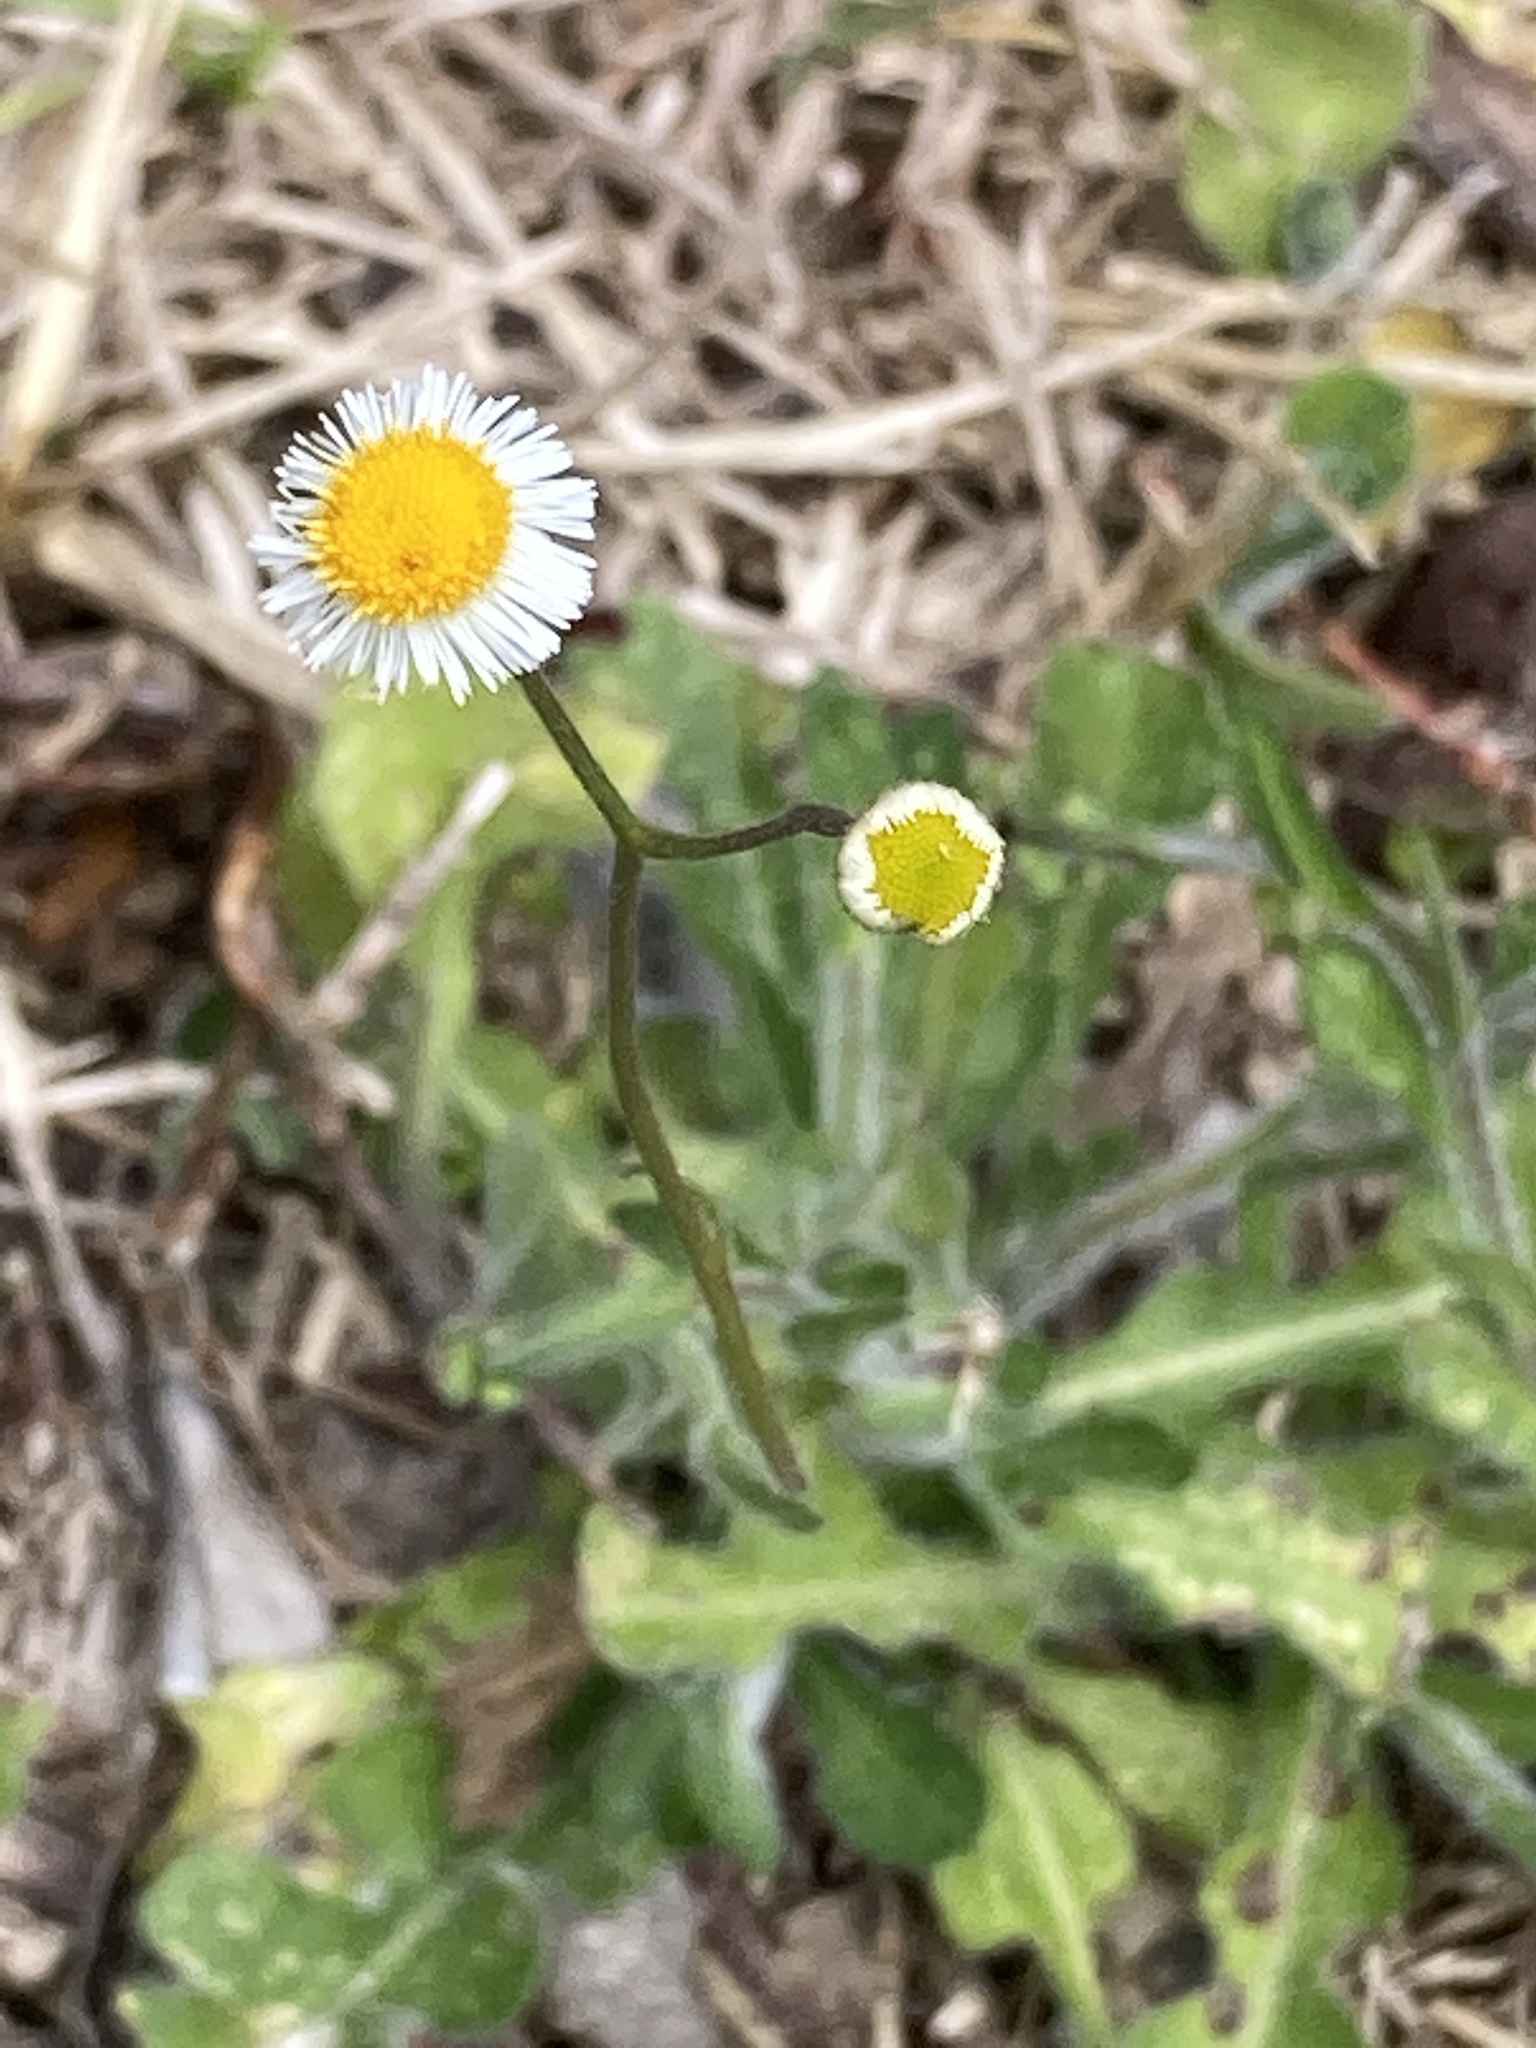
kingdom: Plantae
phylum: Tracheophyta
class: Magnoliopsida
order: Asterales
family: Asteraceae
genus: Erigeron
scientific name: Erigeron quercifolius
